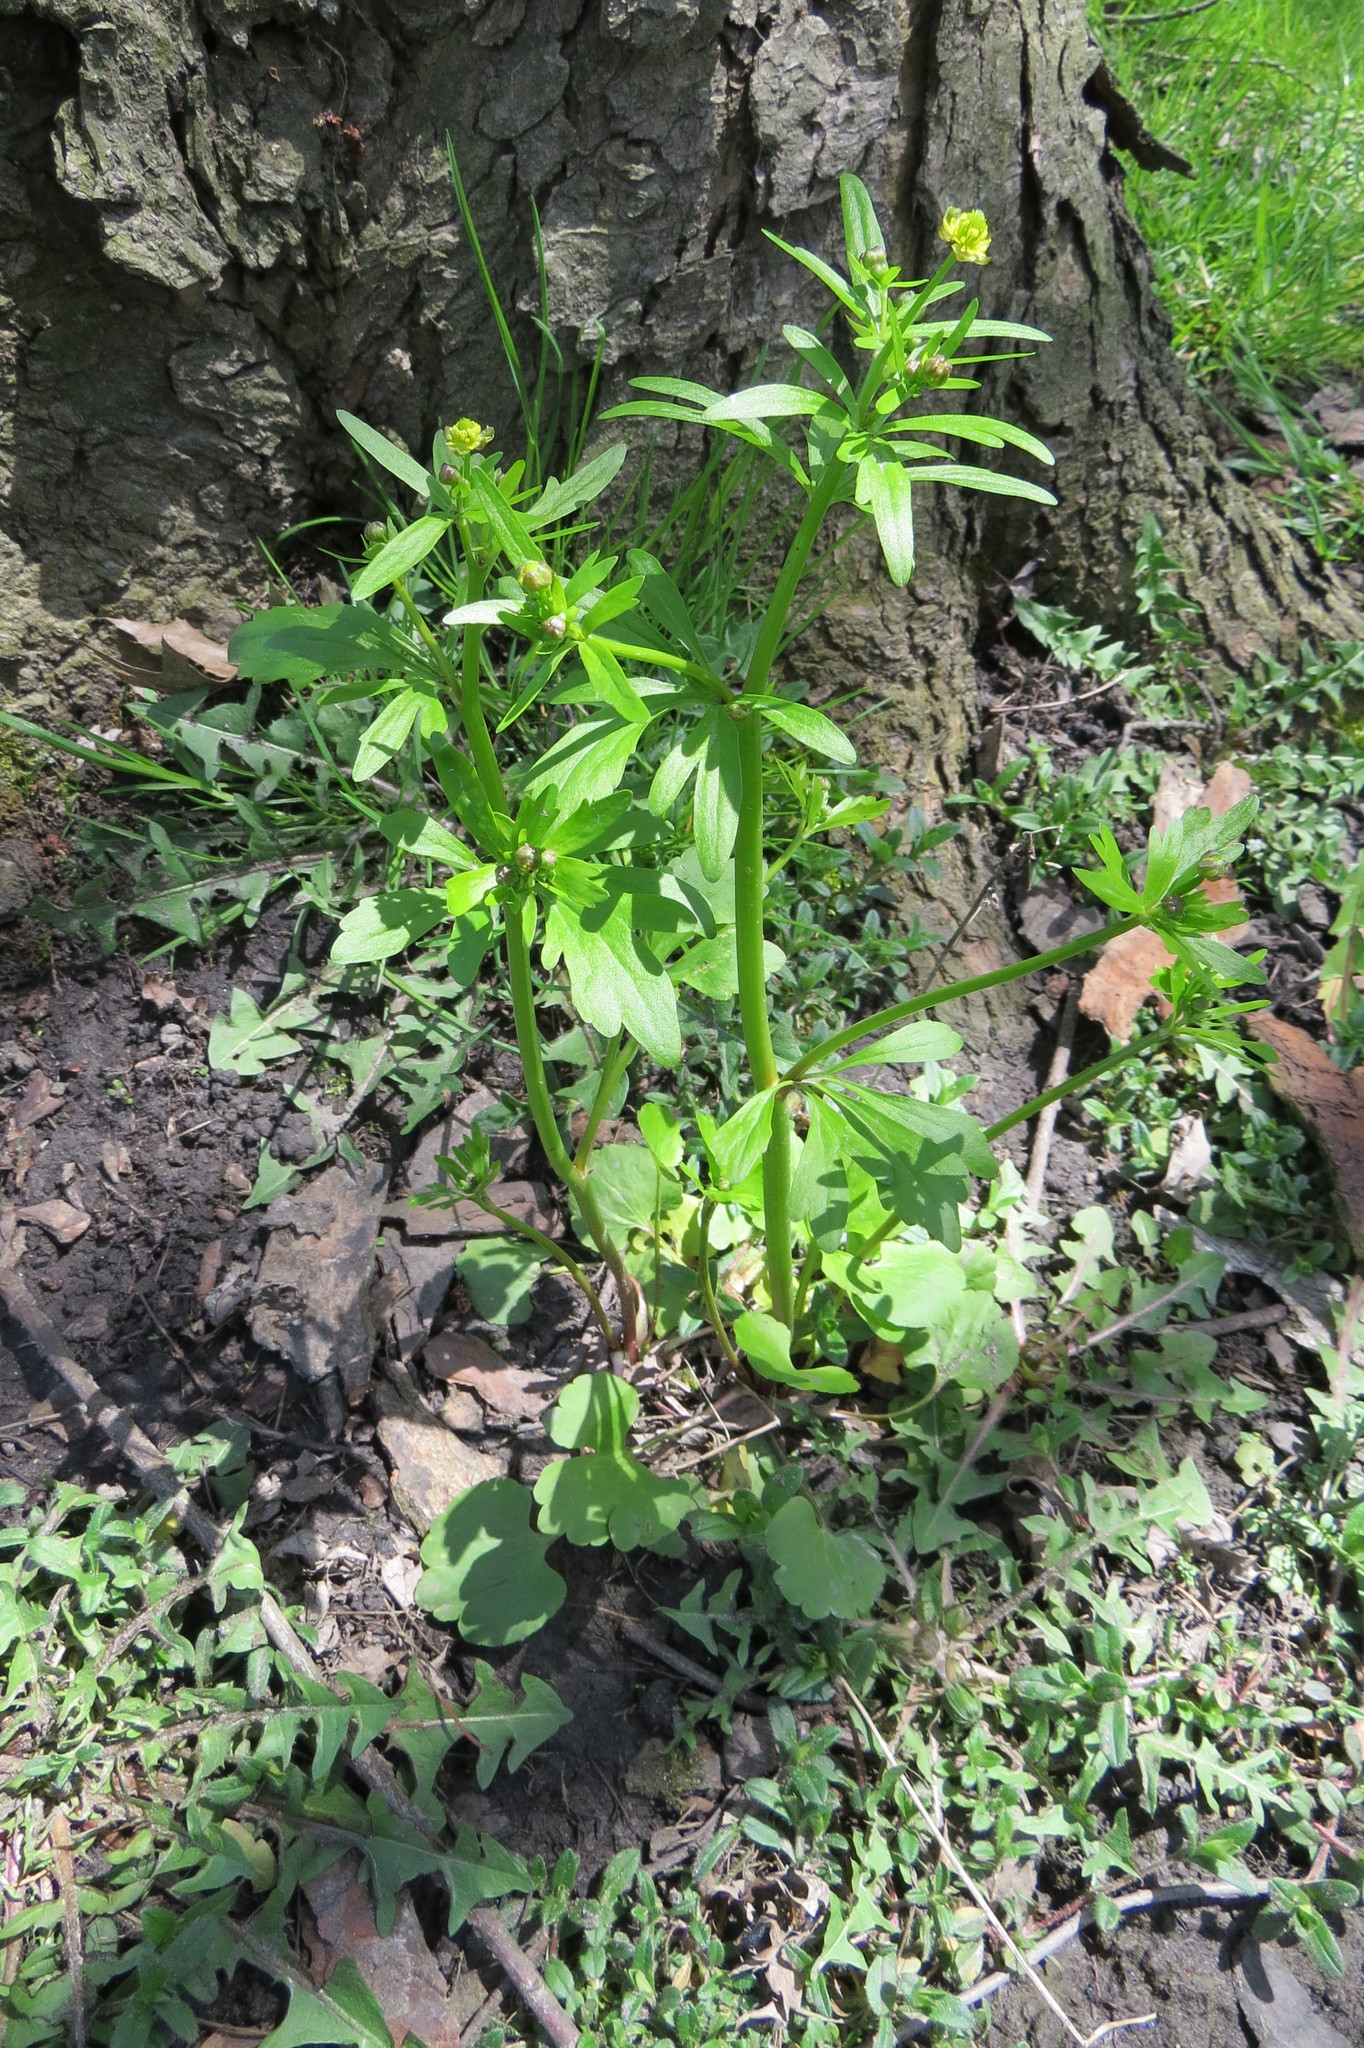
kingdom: Plantae
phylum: Tracheophyta
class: Magnoliopsida
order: Ranunculales
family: Ranunculaceae
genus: Ranunculus
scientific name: Ranunculus abortivus
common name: Early wood buttercup
